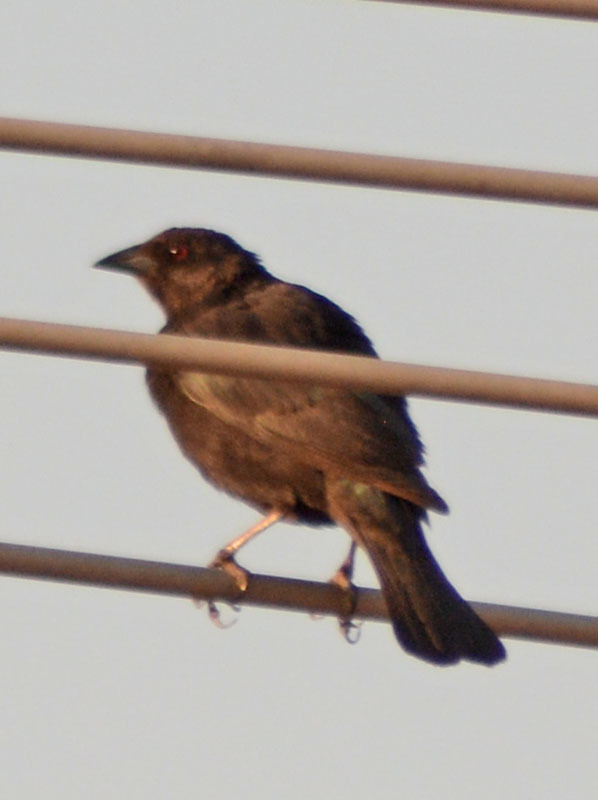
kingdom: Animalia
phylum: Chordata
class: Aves
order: Passeriformes
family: Icteridae
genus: Molothrus
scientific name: Molothrus aeneus
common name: Bronzed cowbird
